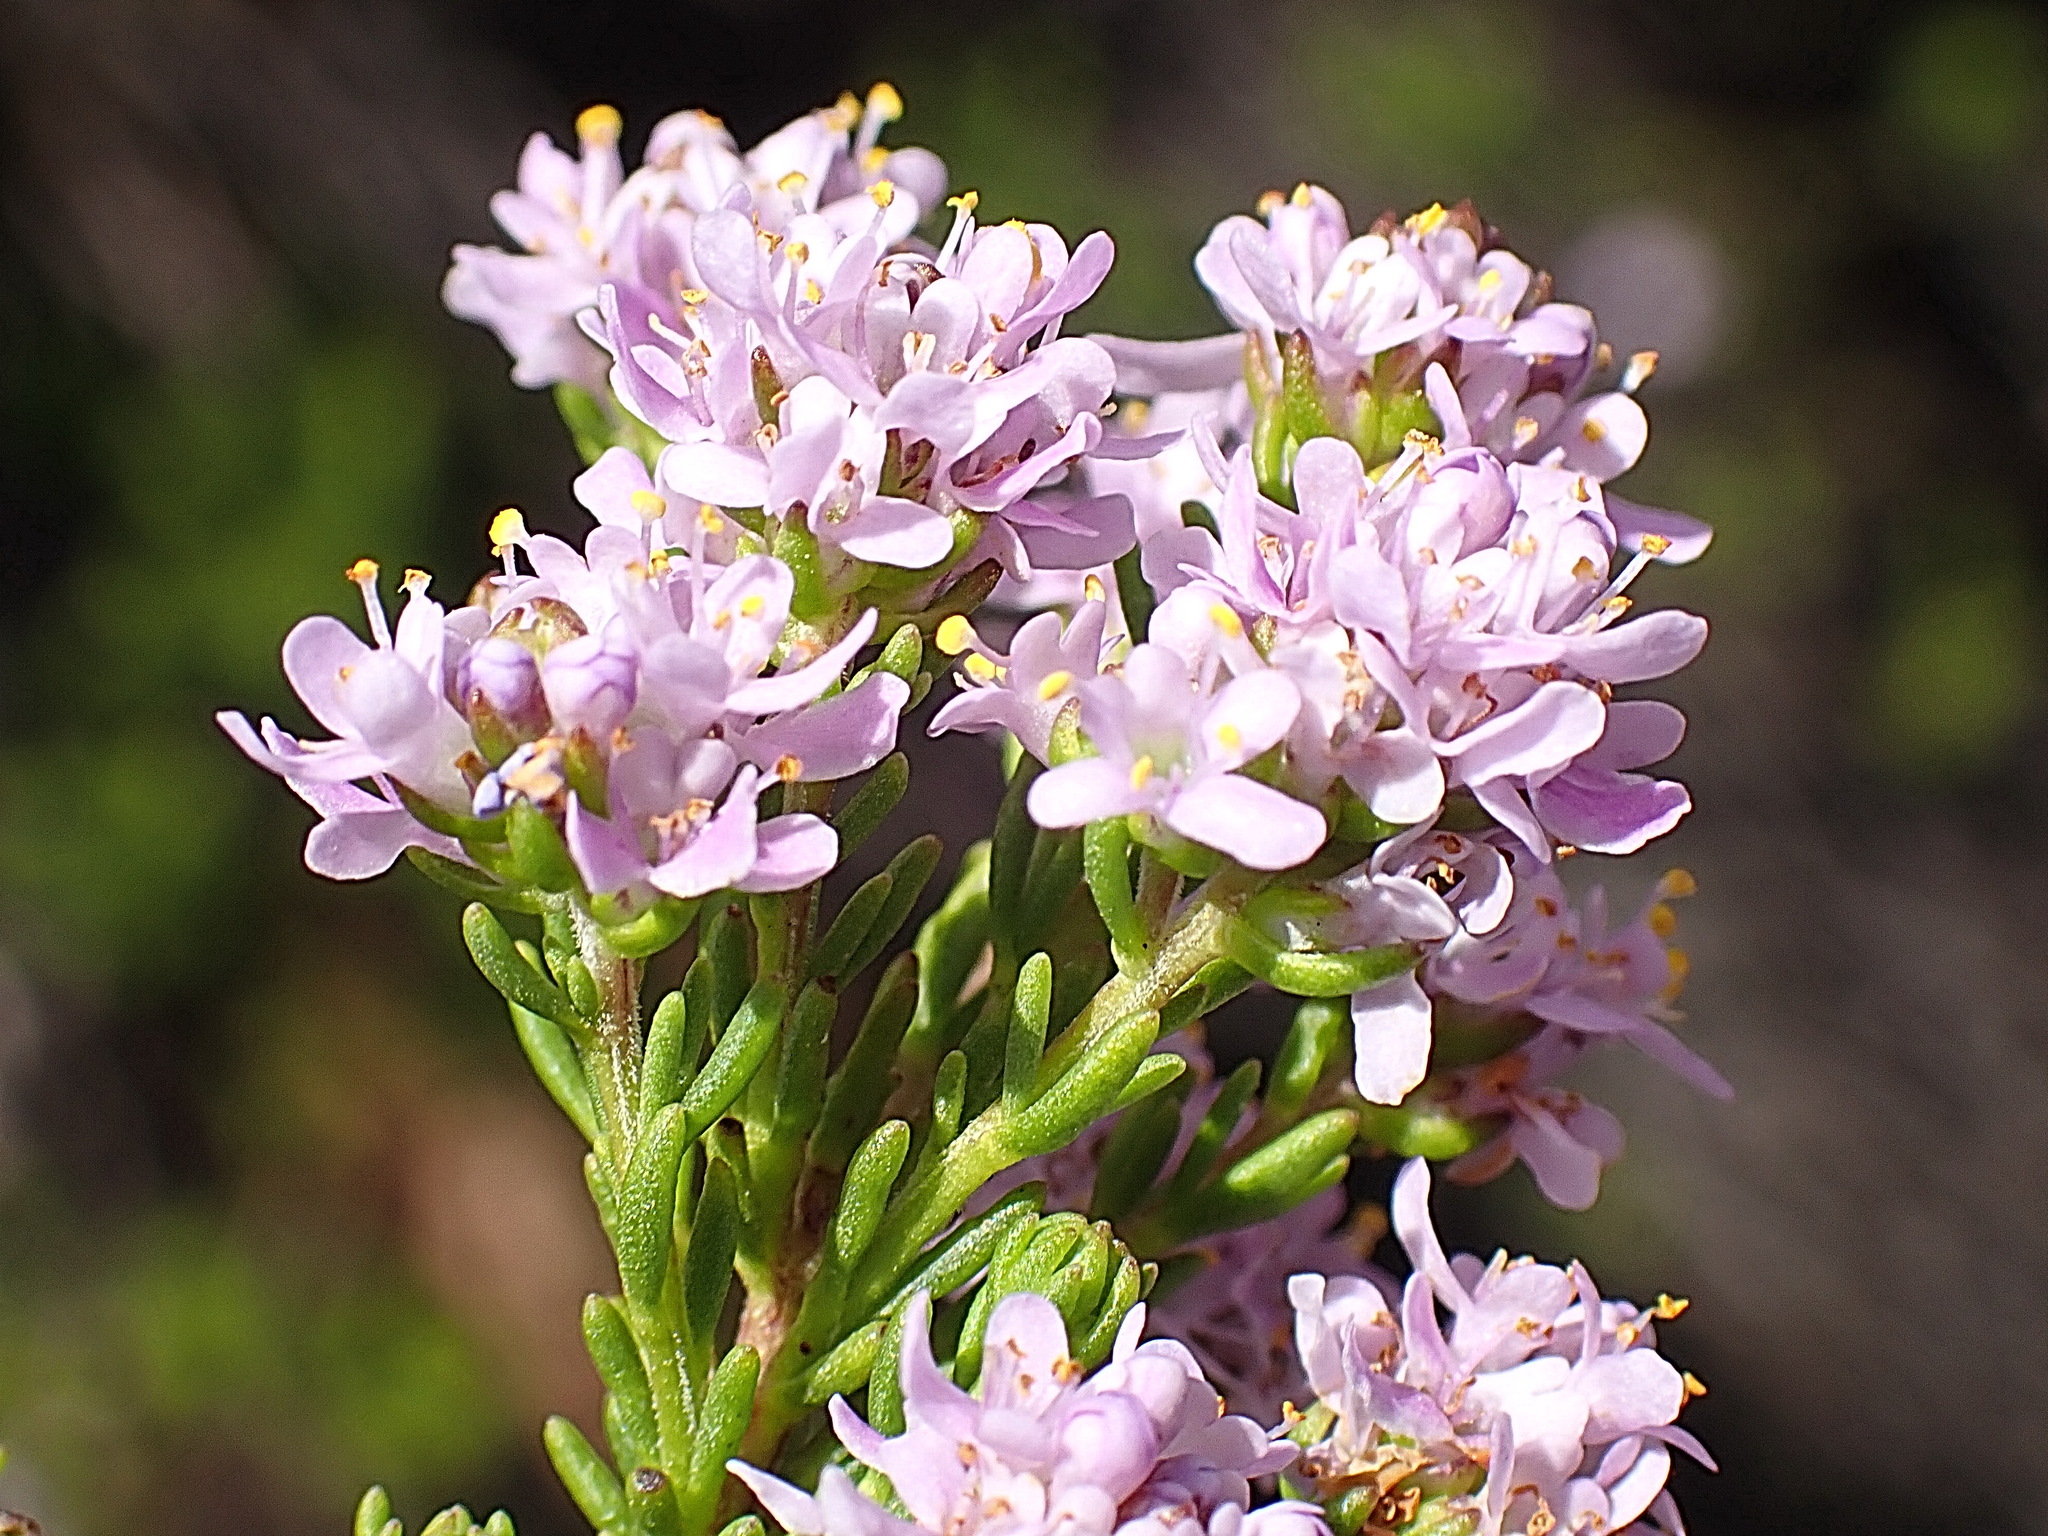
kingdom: Plantae
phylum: Tracheophyta
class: Magnoliopsida
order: Lamiales
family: Scrophulariaceae
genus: Selago
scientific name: Selago pulchra
